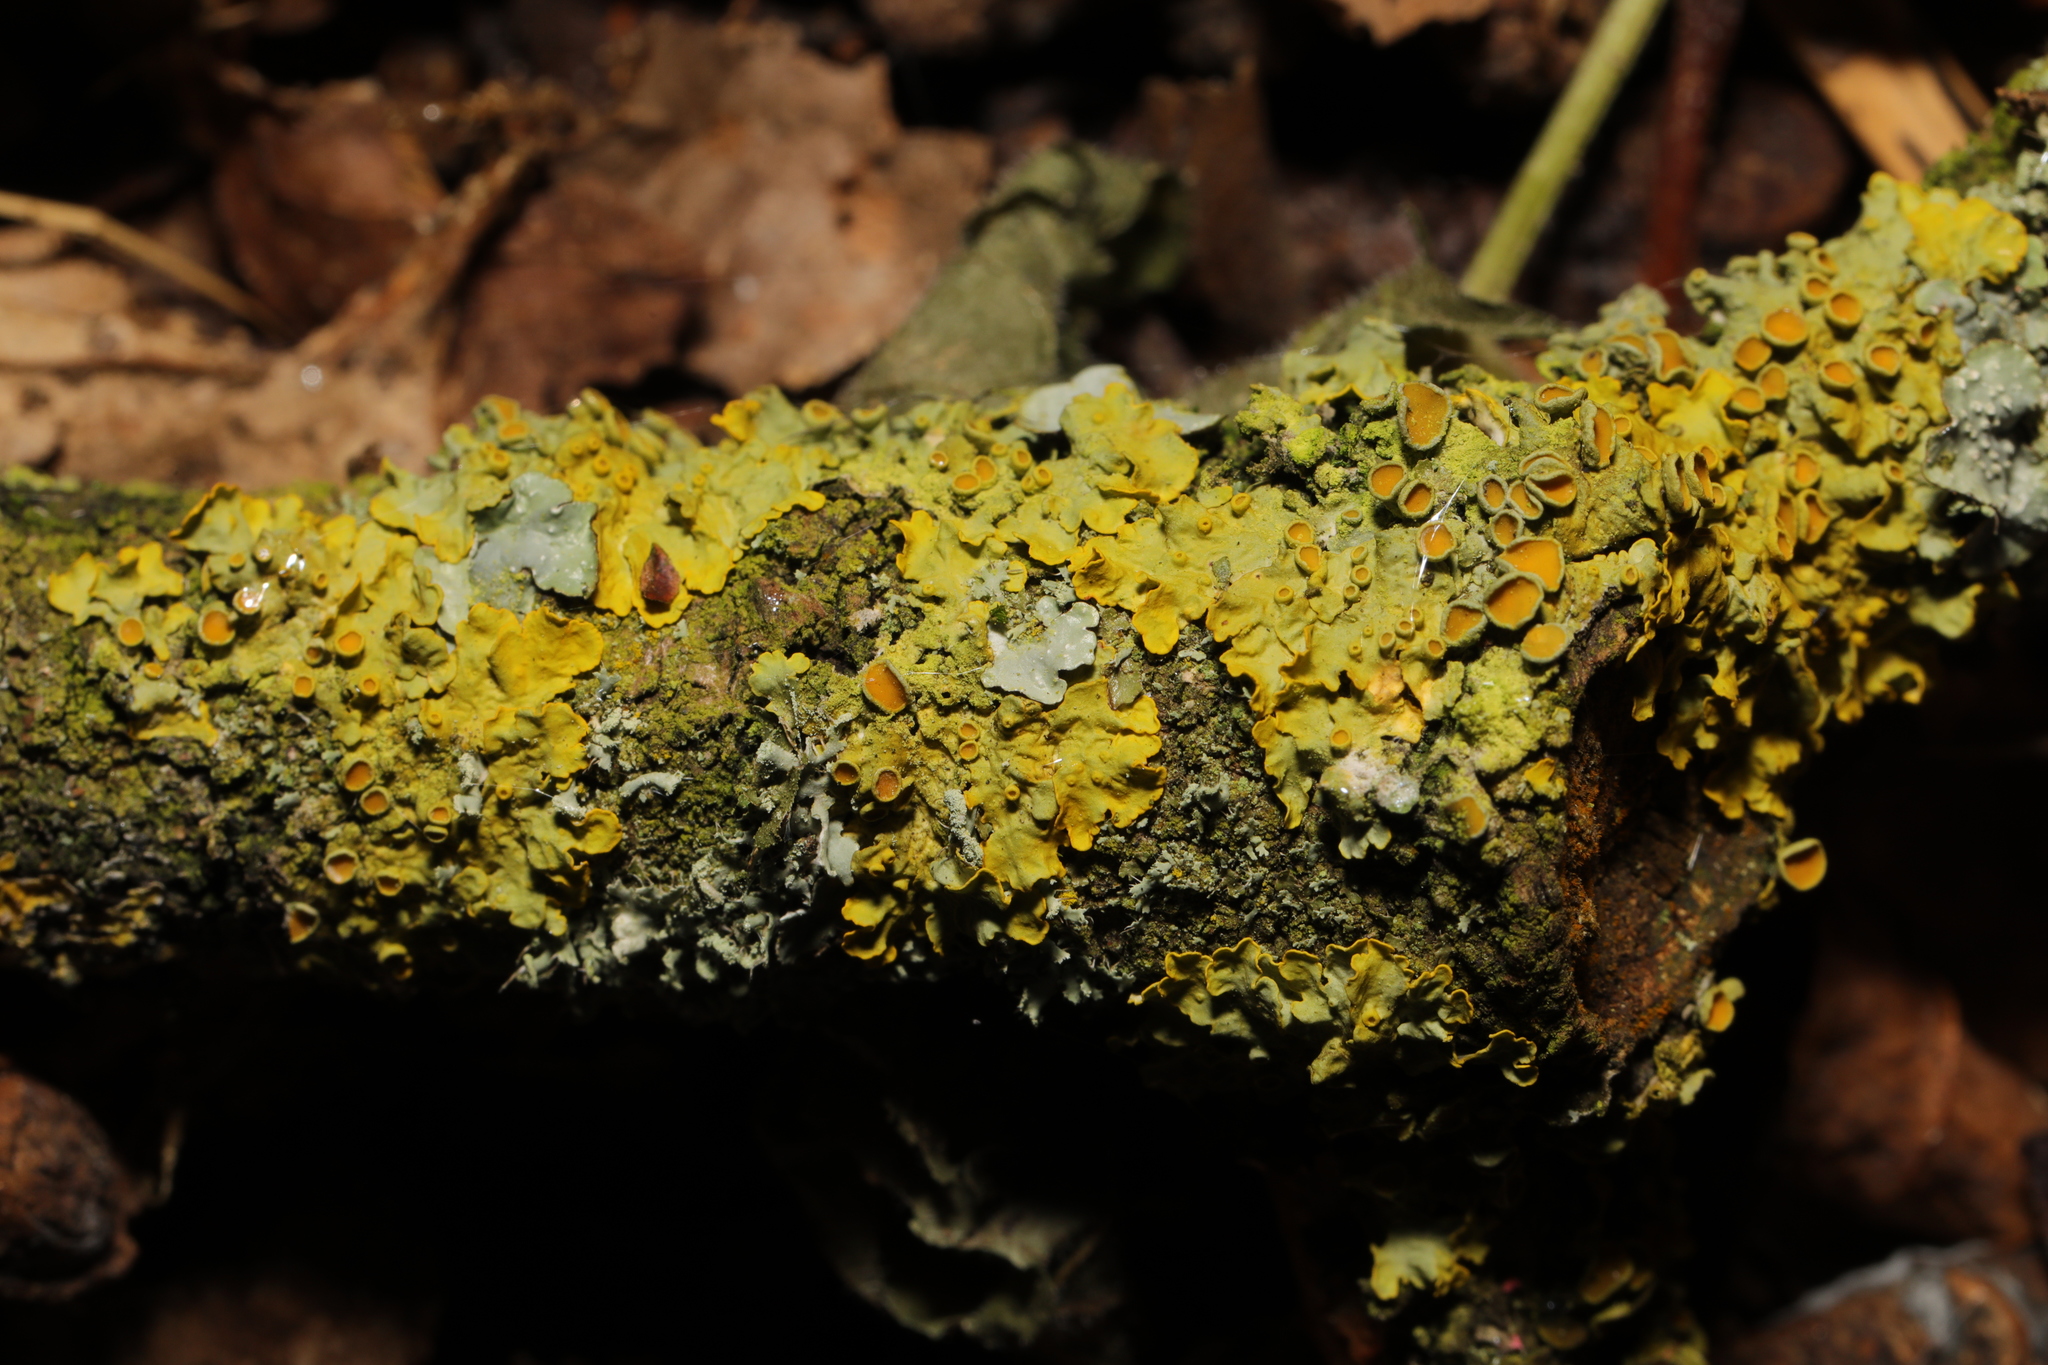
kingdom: Fungi
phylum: Ascomycota
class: Lecanoromycetes
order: Teloschistales
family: Teloschistaceae
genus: Xanthoria
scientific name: Xanthoria parietina
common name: Common orange lichen
